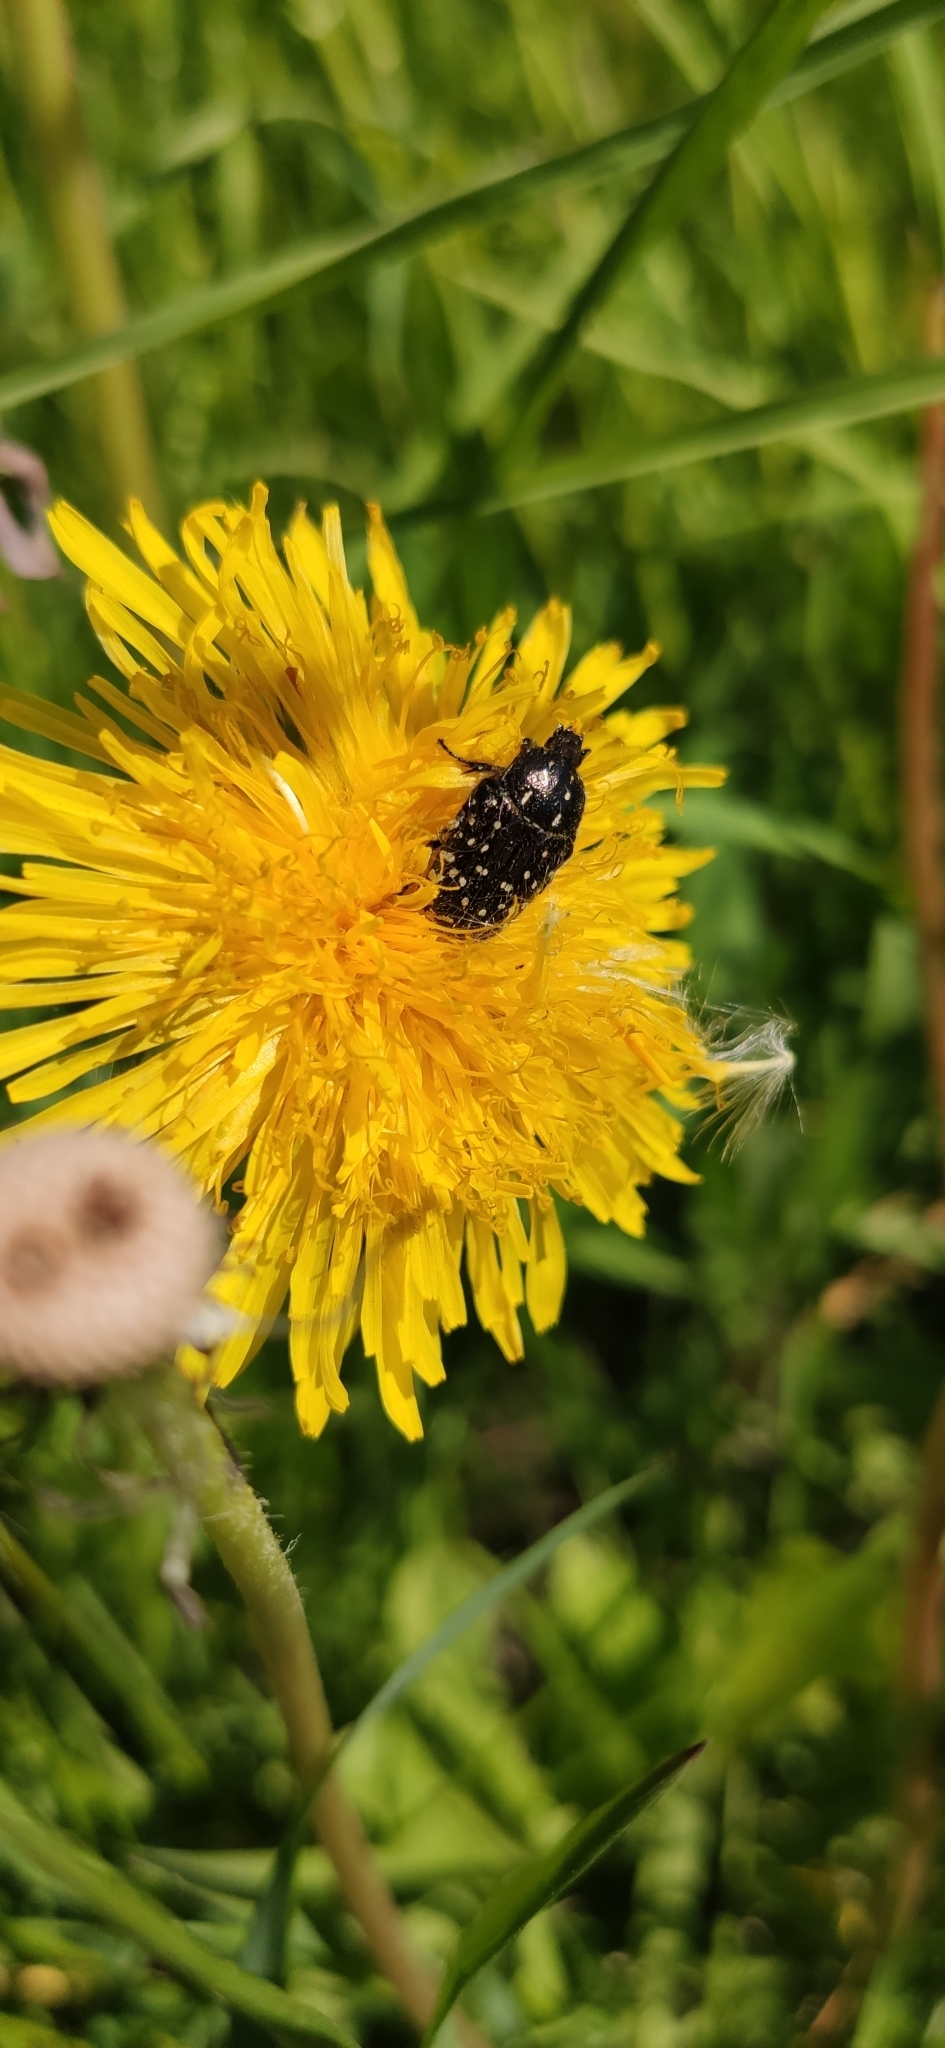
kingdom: Animalia
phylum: Arthropoda
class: Insecta
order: Coleoptera
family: Scarabaeidae
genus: Oxythyrea
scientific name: Oxythyrea funesta
